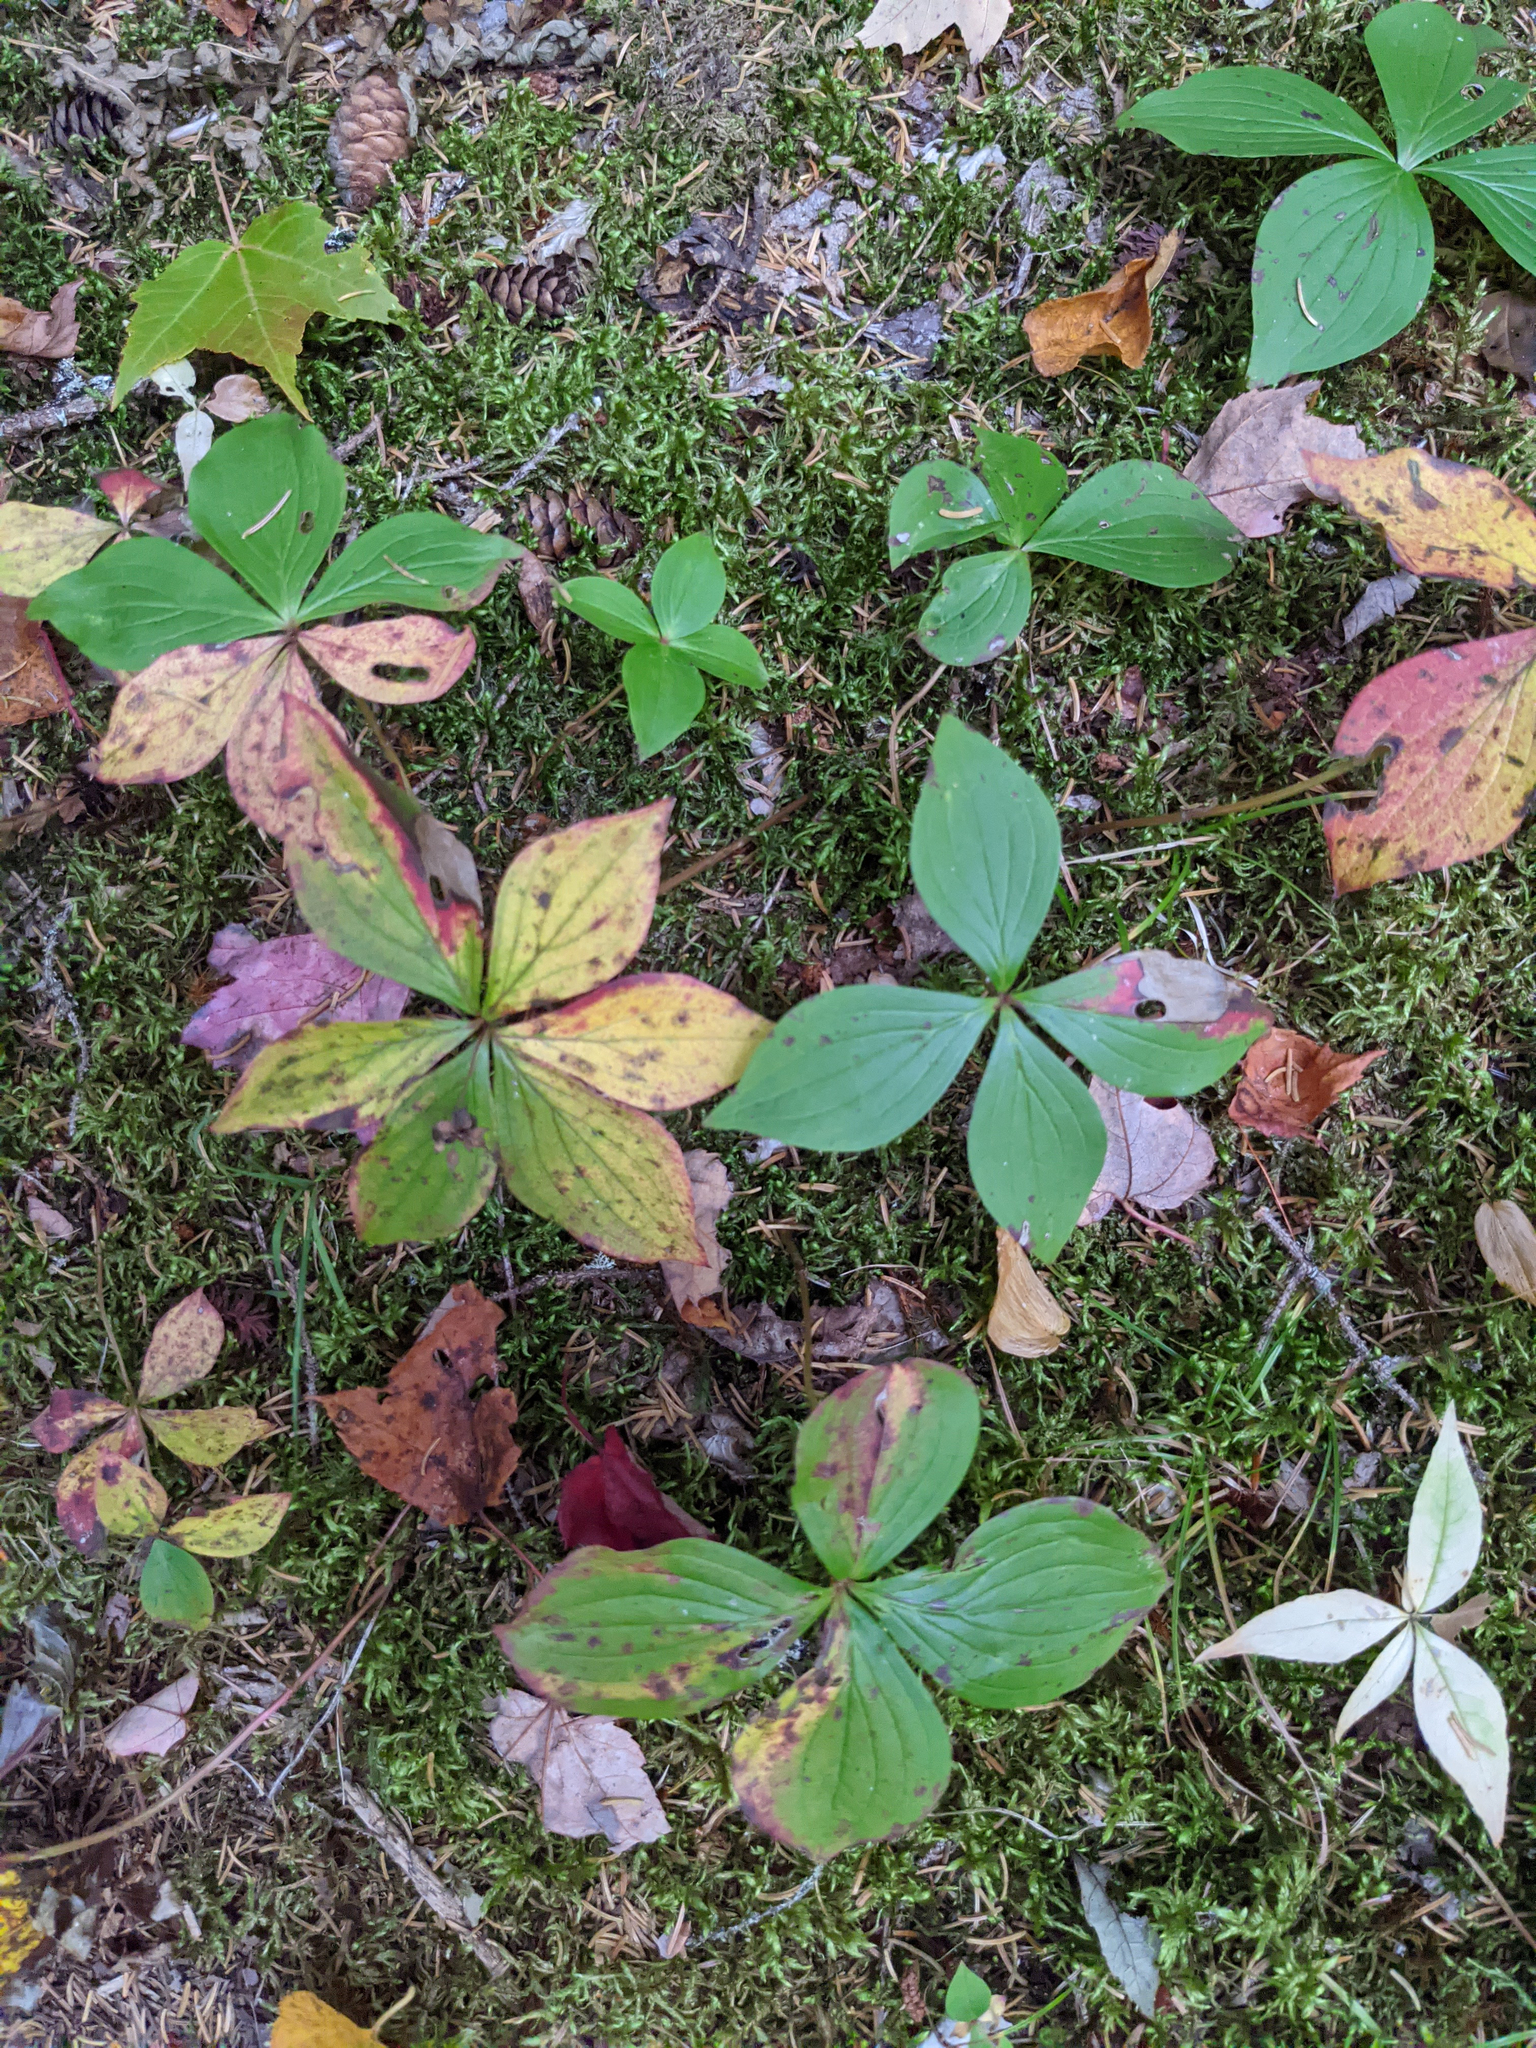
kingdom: Plantae
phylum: Tracheophyta
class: Magnoliopsida
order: Cornales
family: Cornaceae
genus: Cornus
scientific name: Cornus canadensis
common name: Creeping dogwood
